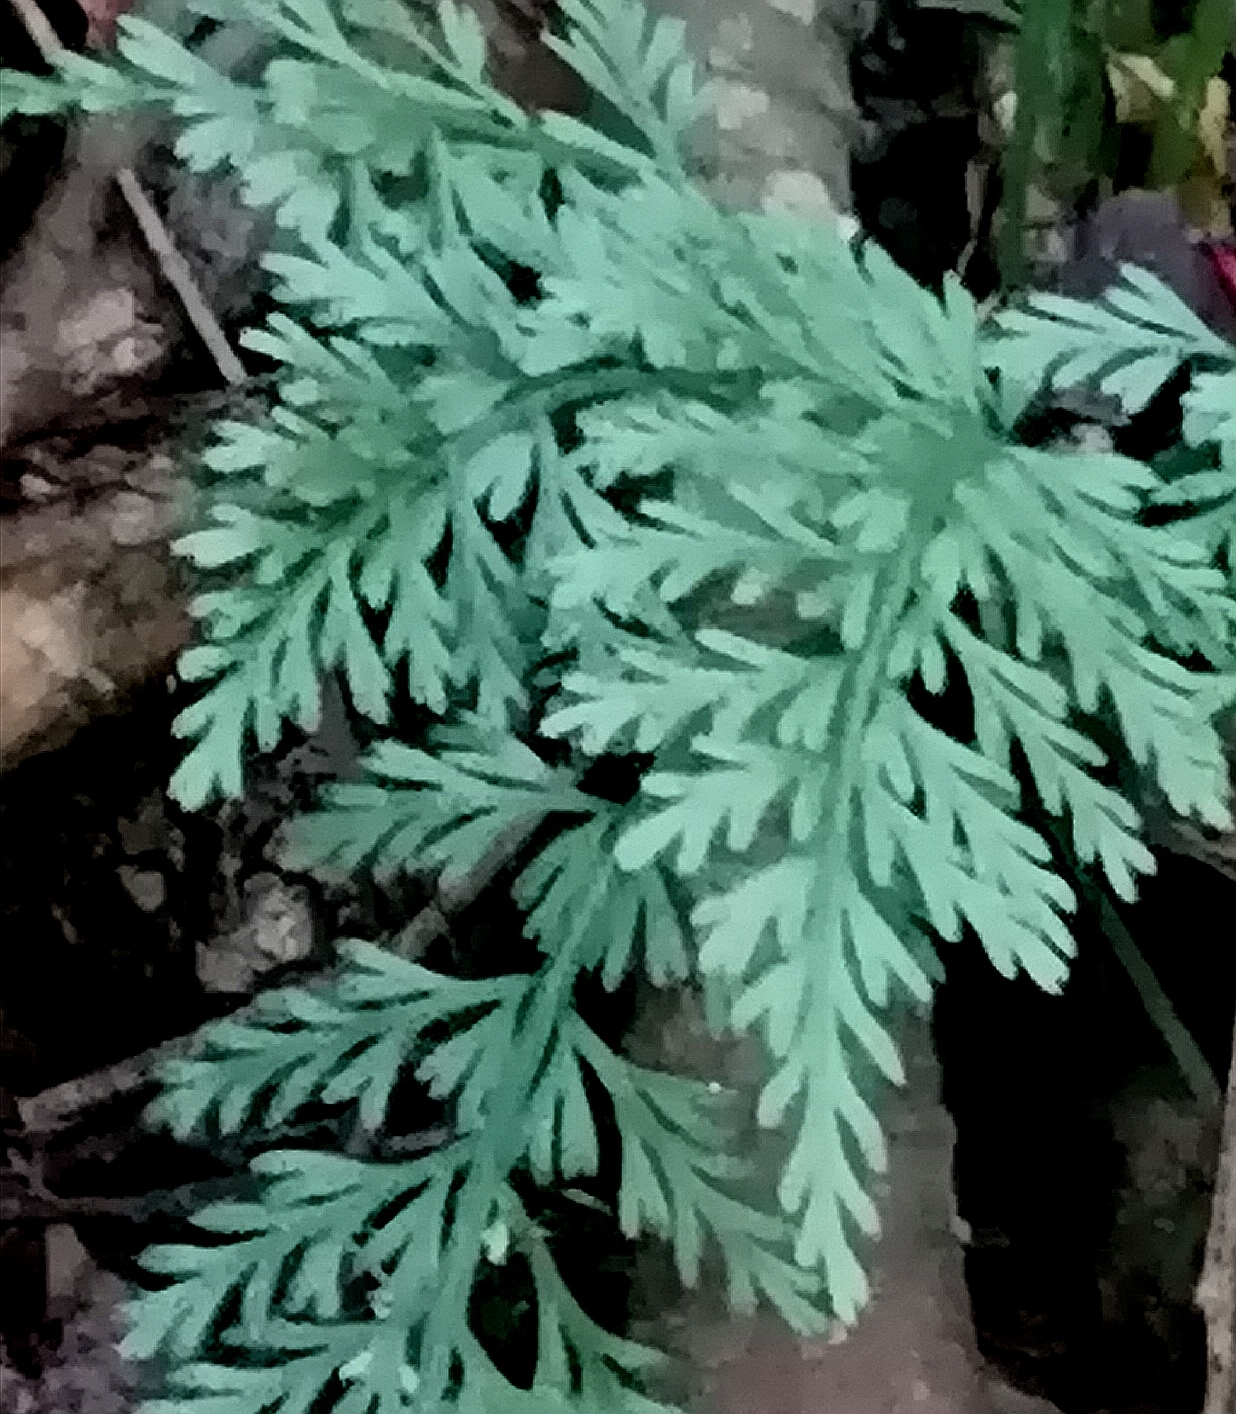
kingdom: Plantae
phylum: Tracheophyta
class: Polypodiopsida
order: Polypodiales
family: Aspleniaceae
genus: Asplenium
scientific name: Asplenium rutifolium
